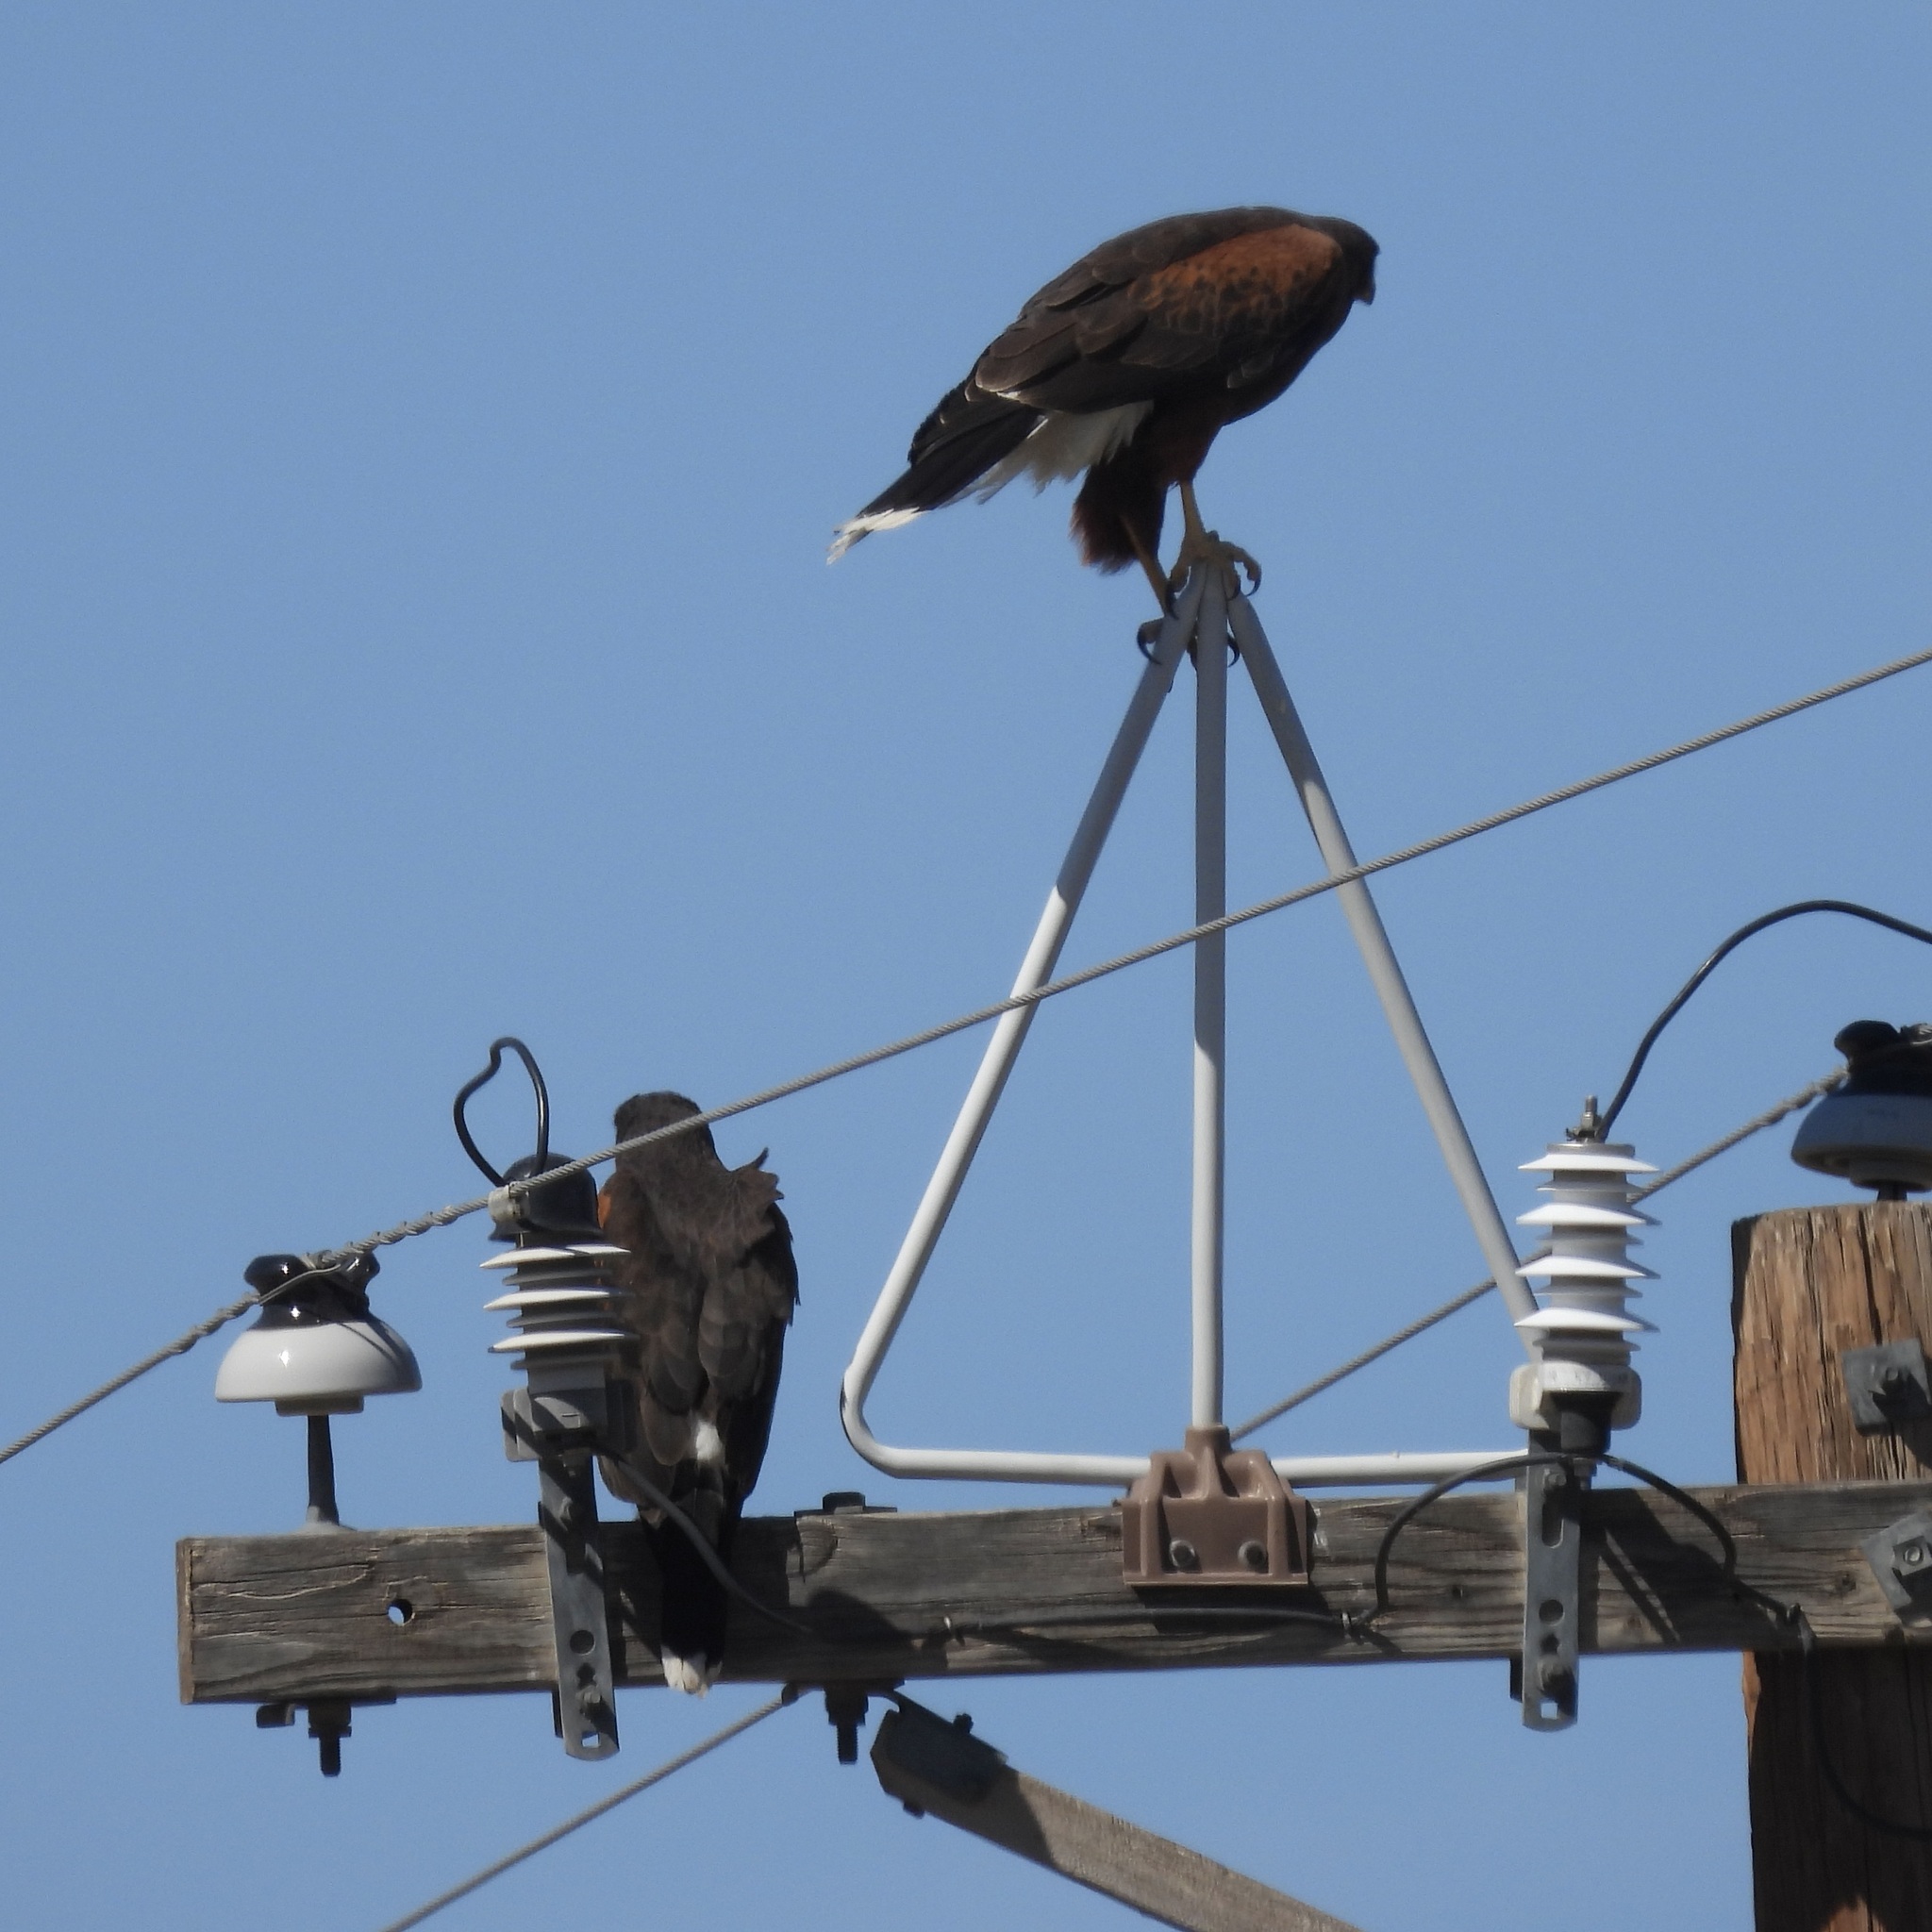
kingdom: Animalia
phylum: Chordata
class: Aves
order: Accipitriformes
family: Accipitridae
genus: Parabuteo
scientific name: Parabuteo unicinctus
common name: Harris's hawk
